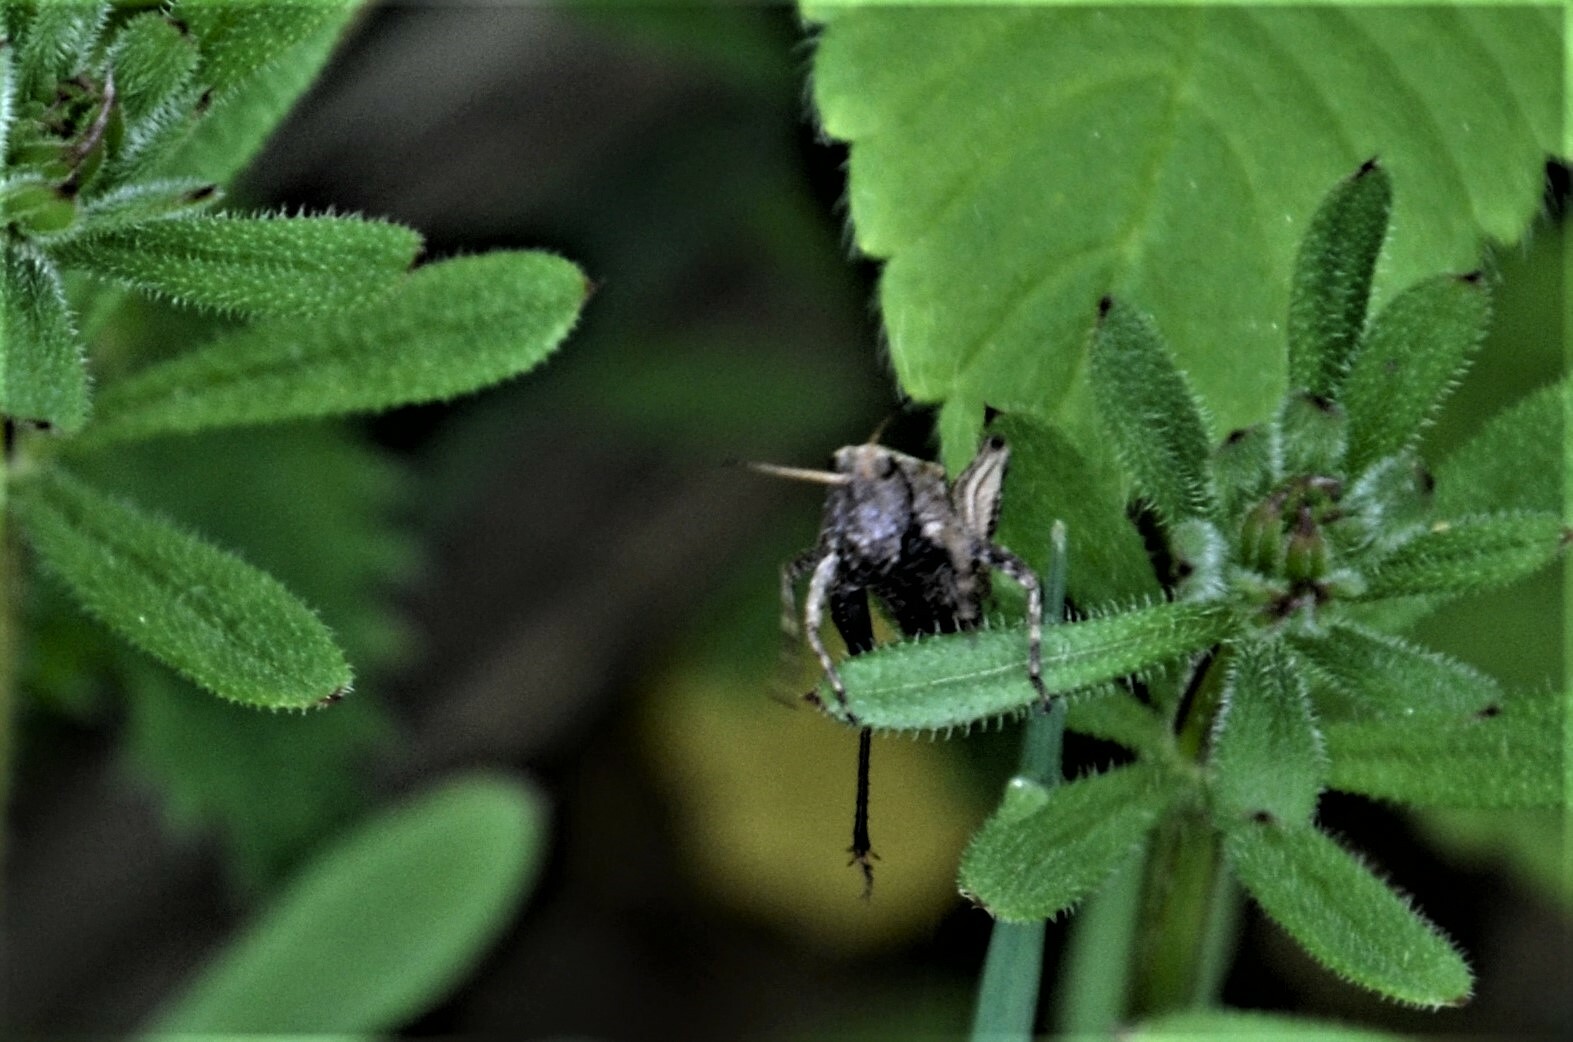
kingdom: Animalia
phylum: Arthropoda
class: Insecta
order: Orthoptera
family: Tetrigidae
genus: Tetrix
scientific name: Tetrix subulata
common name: Slender ground-hopper
